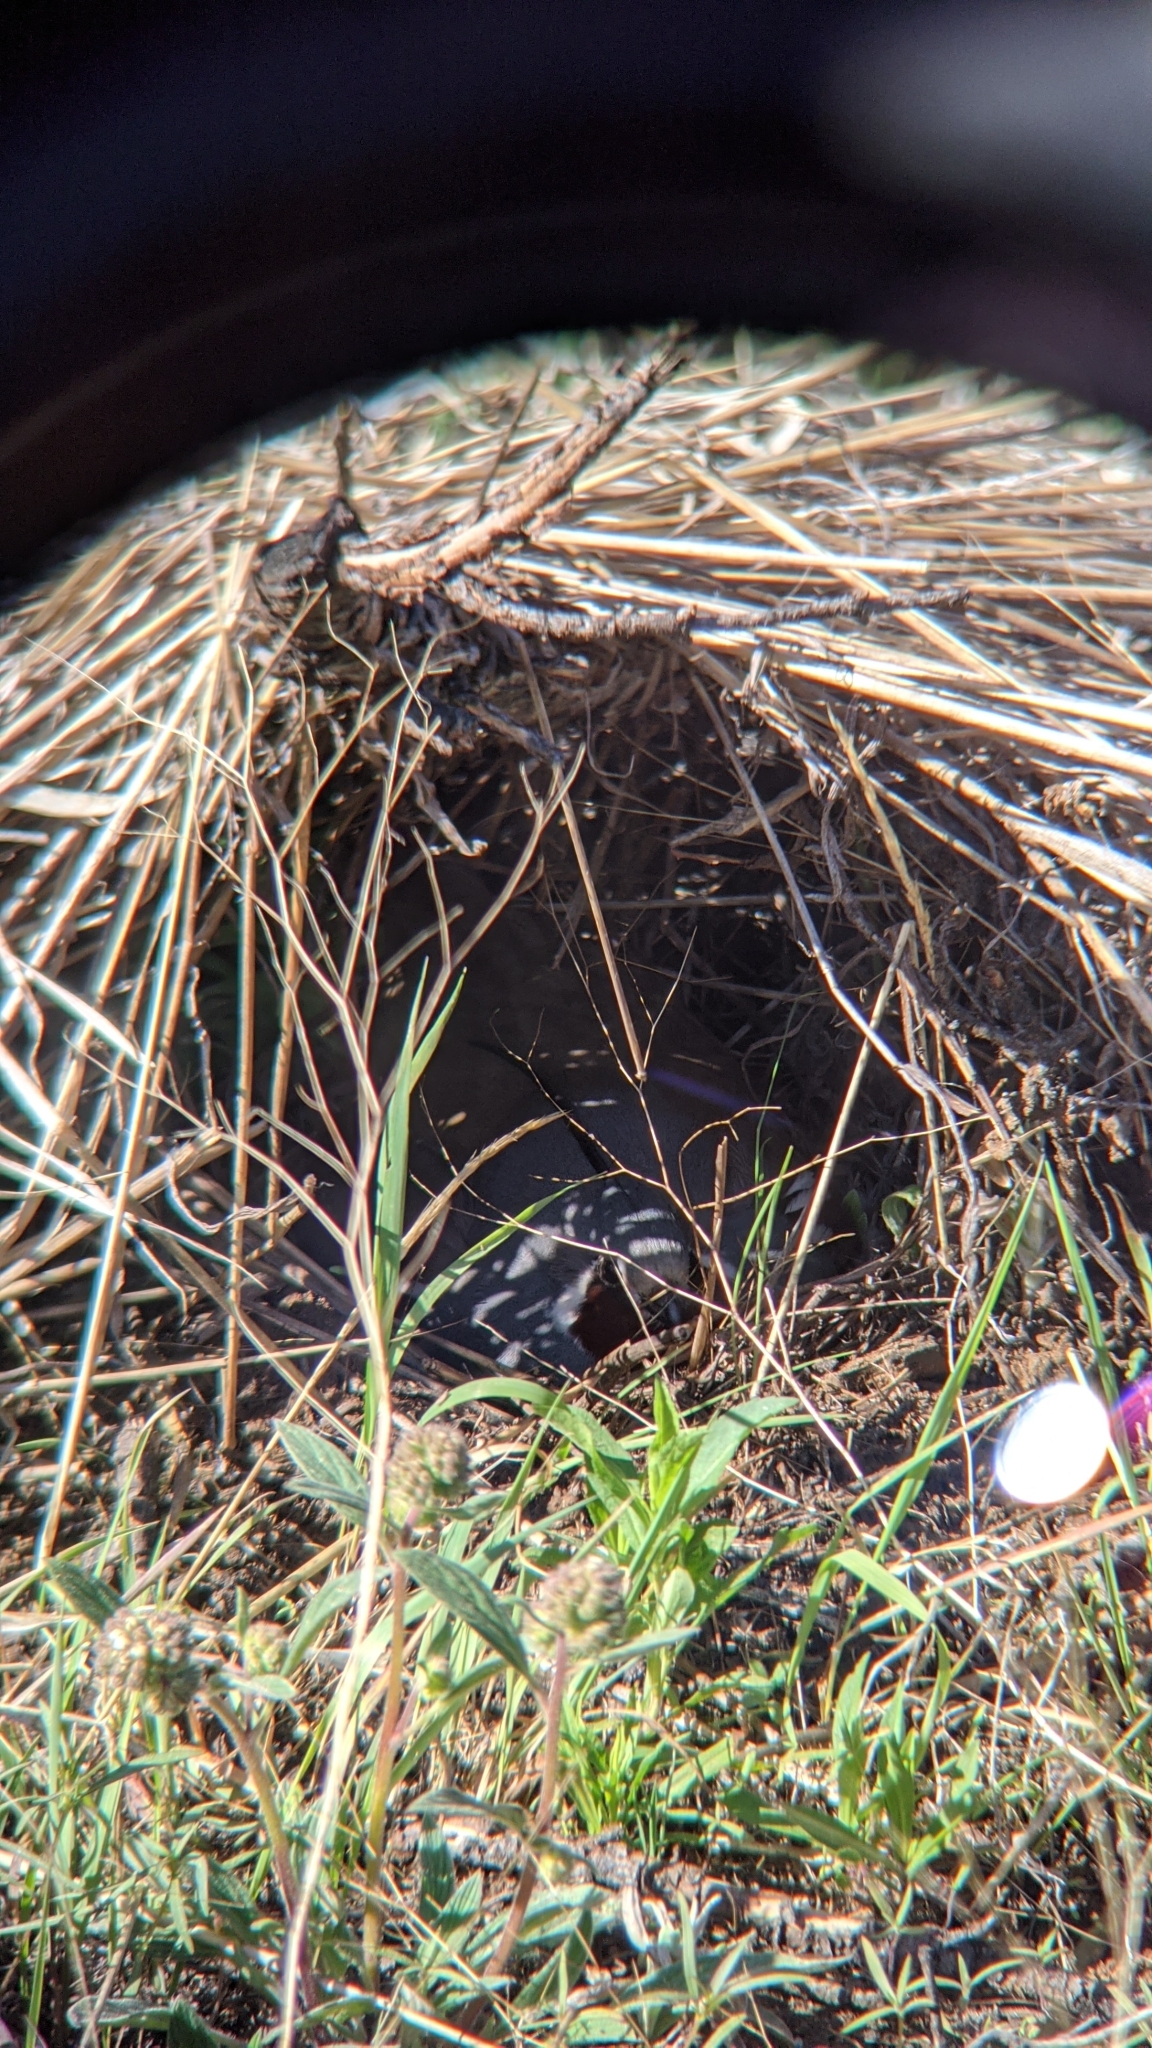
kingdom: Animalia
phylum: Chordata
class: Aves
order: Galliformes
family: Odontophoridae
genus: Oreortyx
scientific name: Oreortyx pictus
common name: Mountain quail
